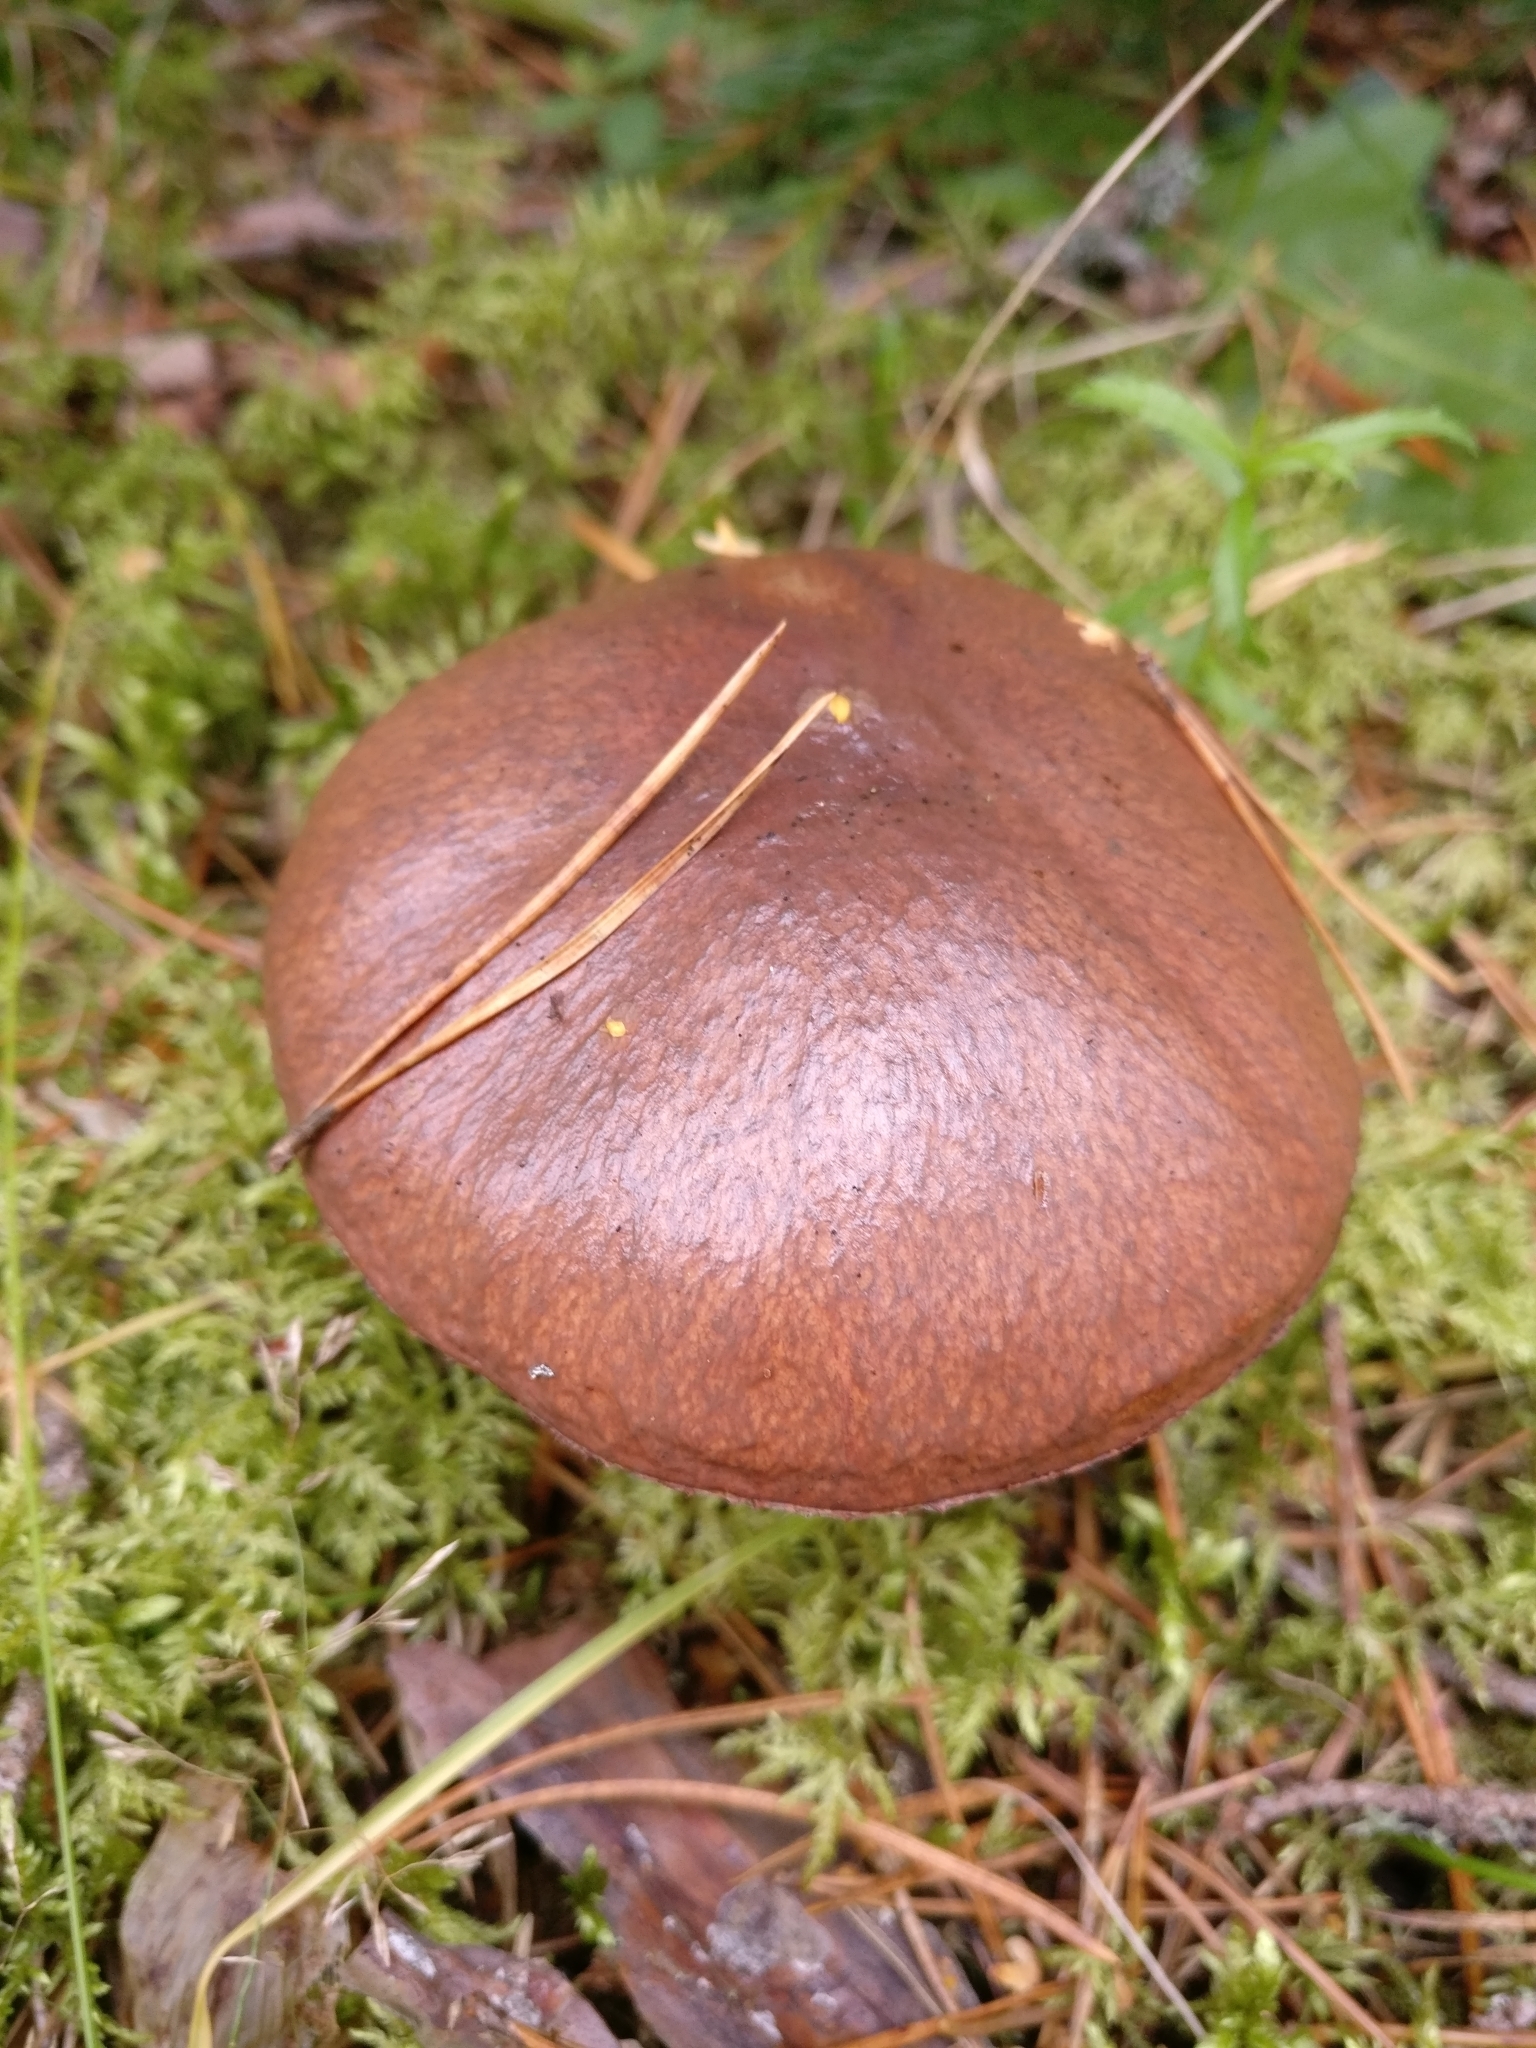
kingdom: Fungi
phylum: Basidiomycota
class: Agaricomycetes
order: Boletales
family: Suillaceae
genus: Suillus
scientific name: Suillus luteus
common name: Slippery jack
